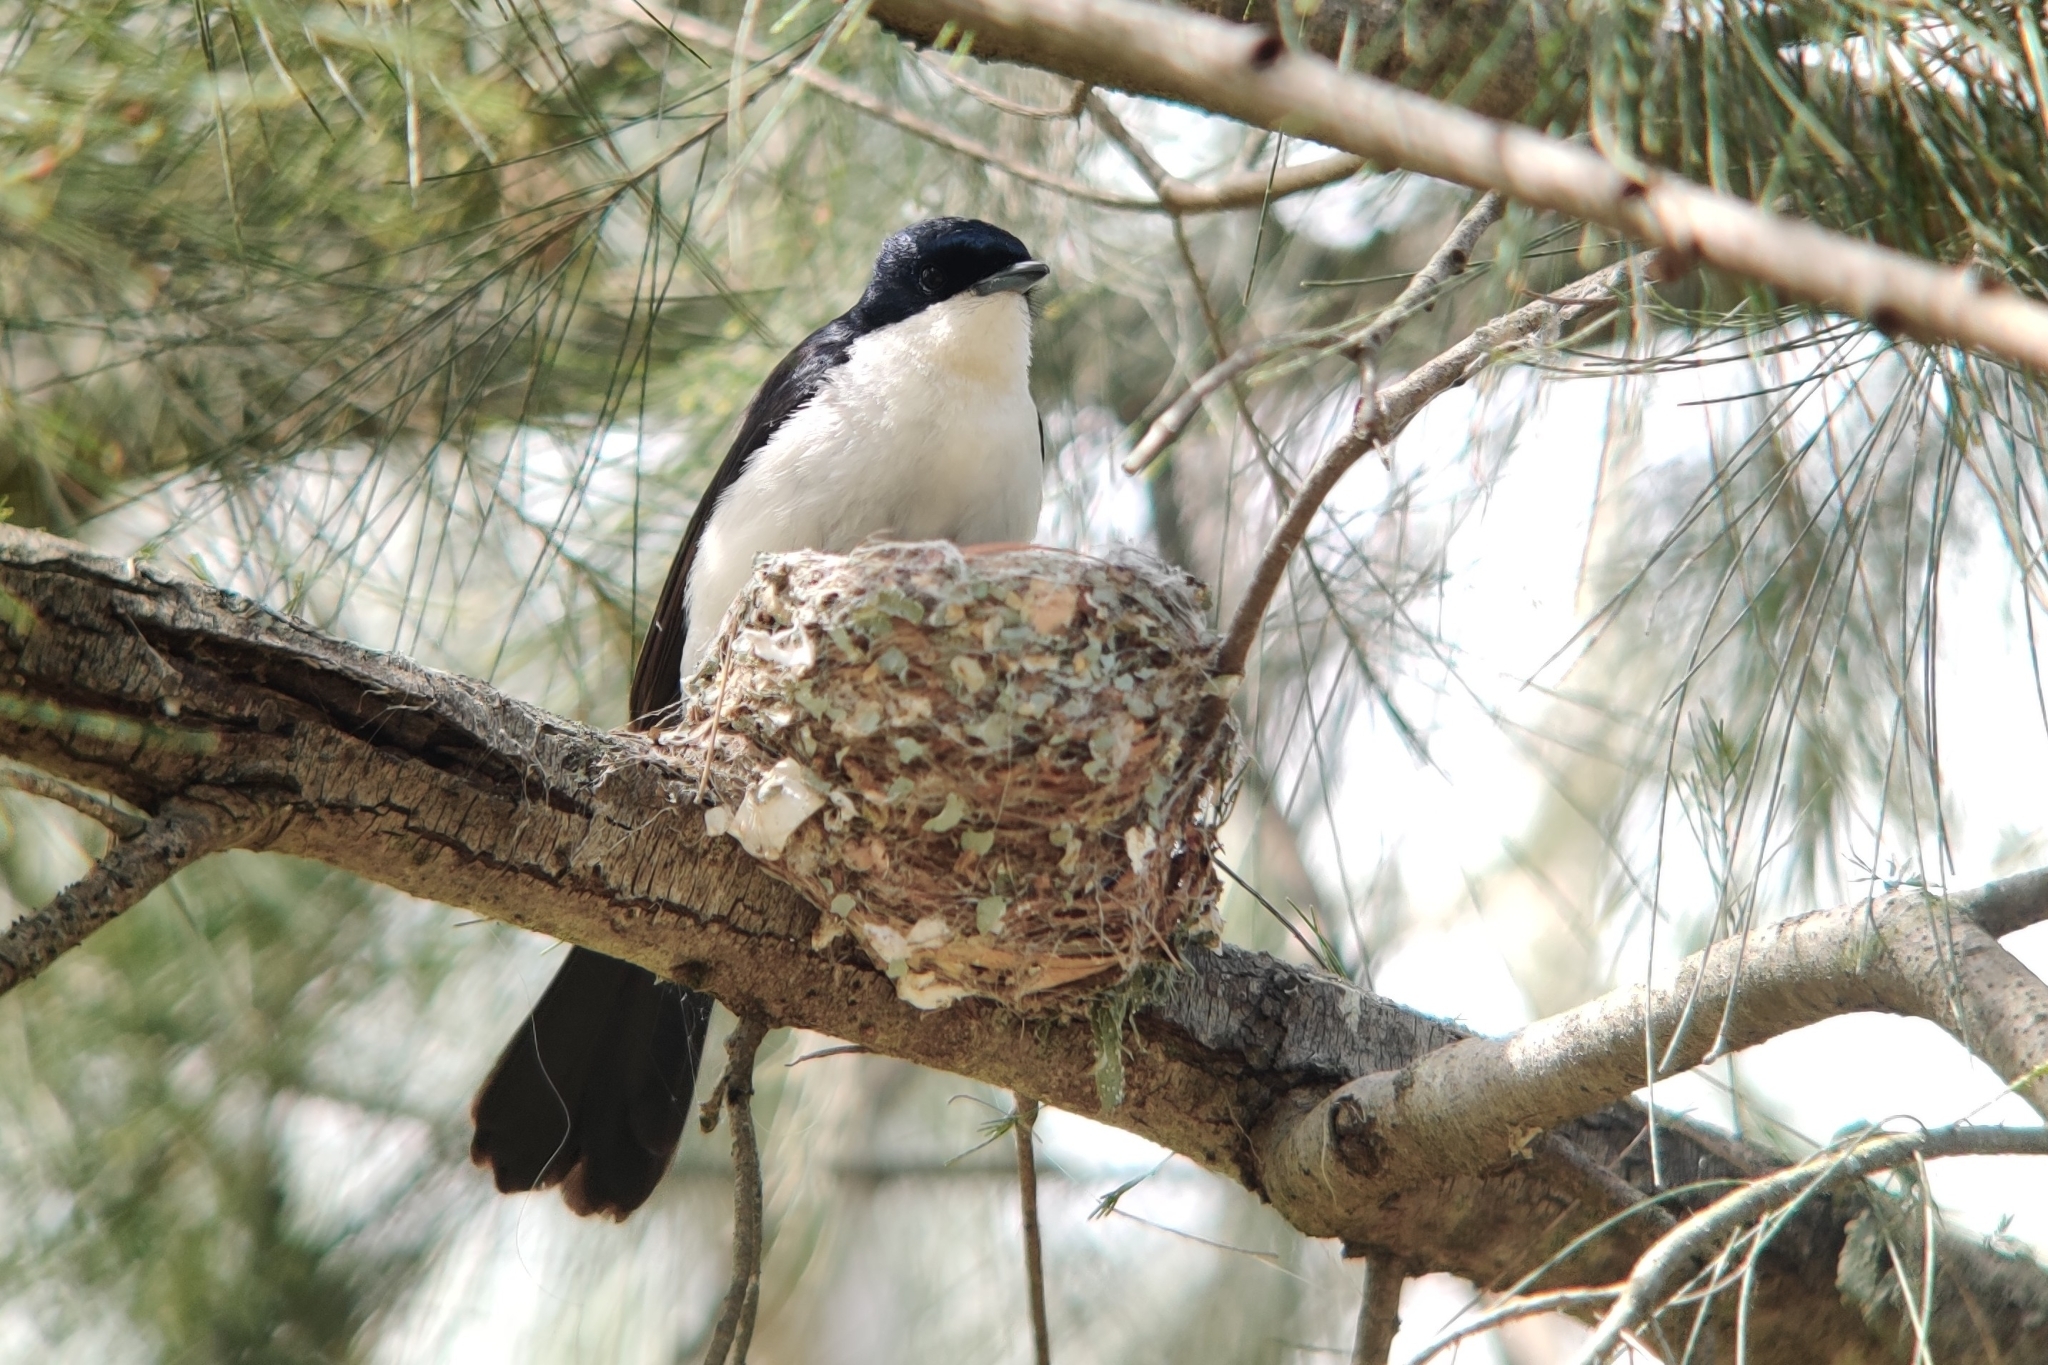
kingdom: Animalia
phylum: Chordata
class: Aves
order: Passeriformes
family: Monarchidae
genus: Myiagra
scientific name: Myiagra inquieta
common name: Restless flycatcher
